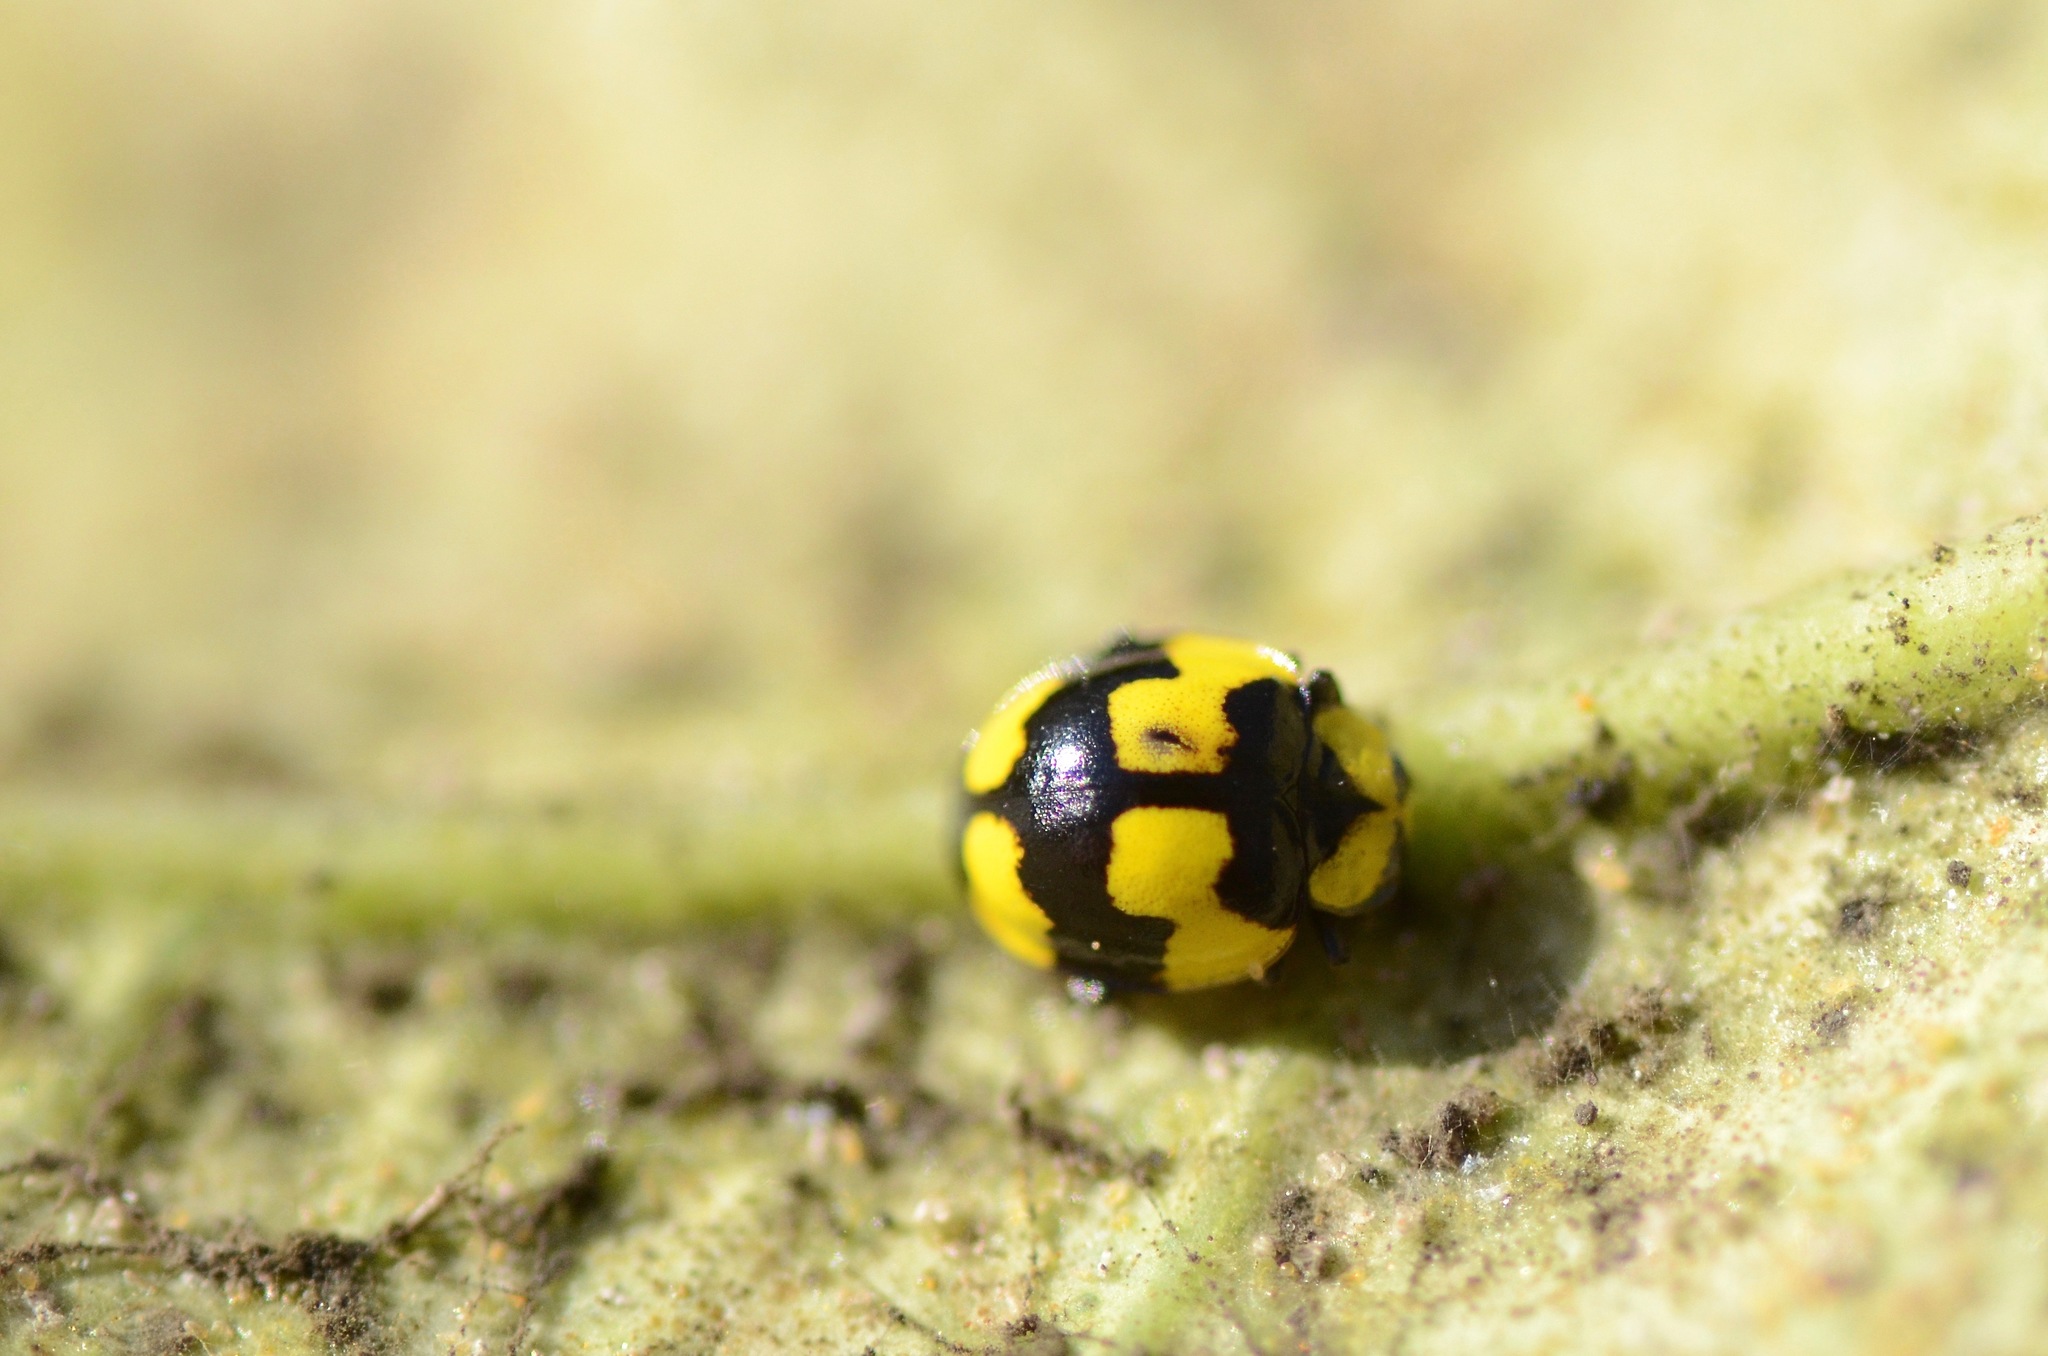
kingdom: Animalia
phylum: Arthropoda
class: Insecta
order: Coleoptera
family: Coccinellidae
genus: Illeis
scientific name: Illeis galbula
